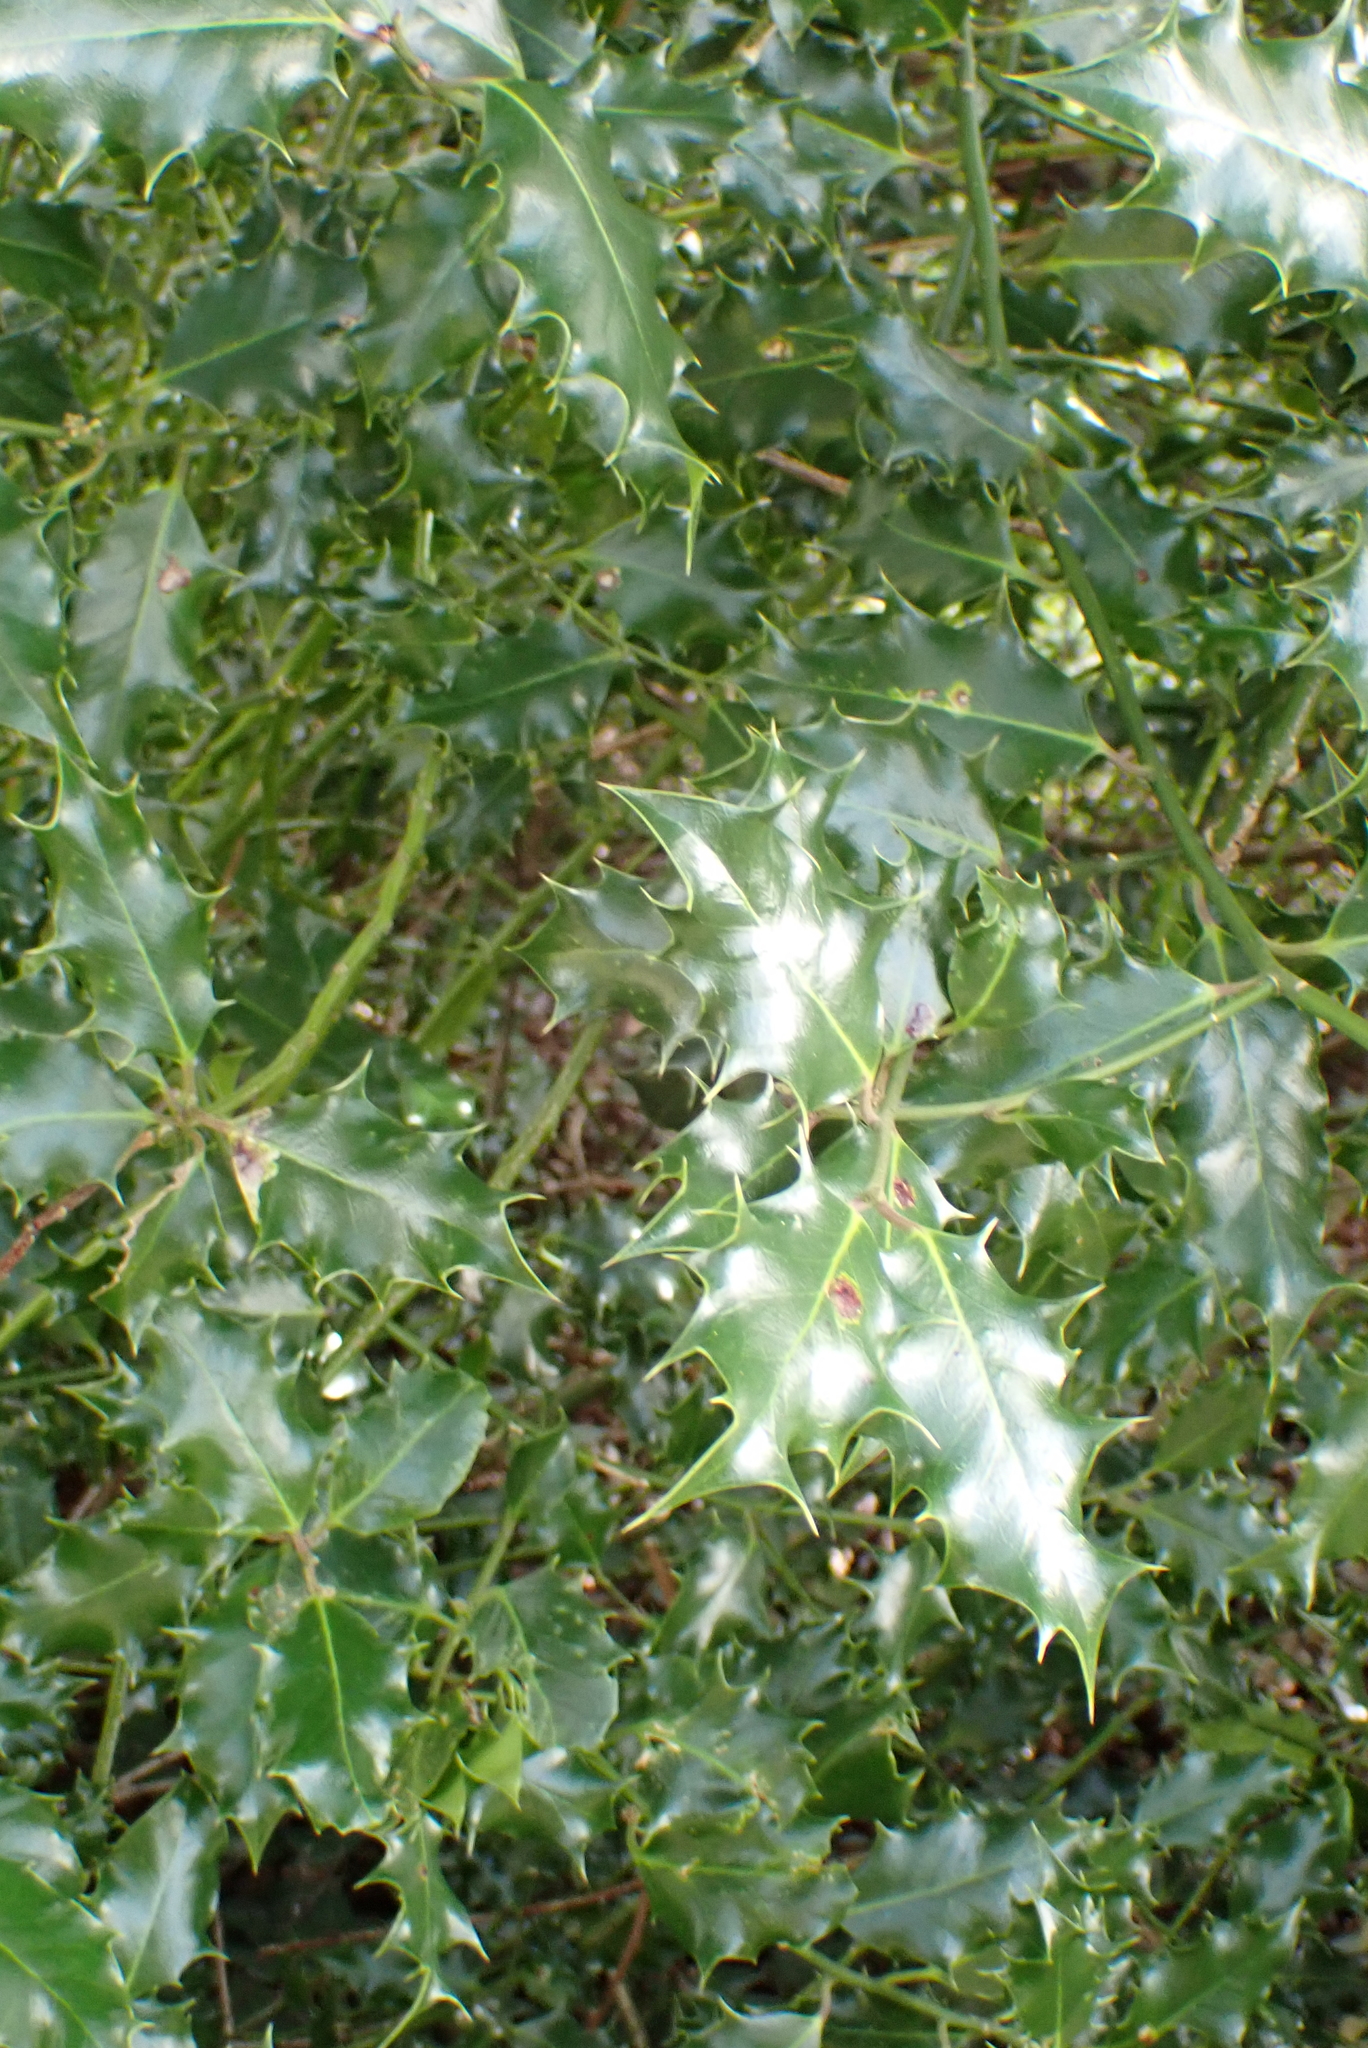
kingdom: Plantae
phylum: Tracheophyta
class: Magnoliopsida
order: Aquifoliales
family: Aquifoliaceae
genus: Ilex
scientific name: Ilex aquifolium
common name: English holly
